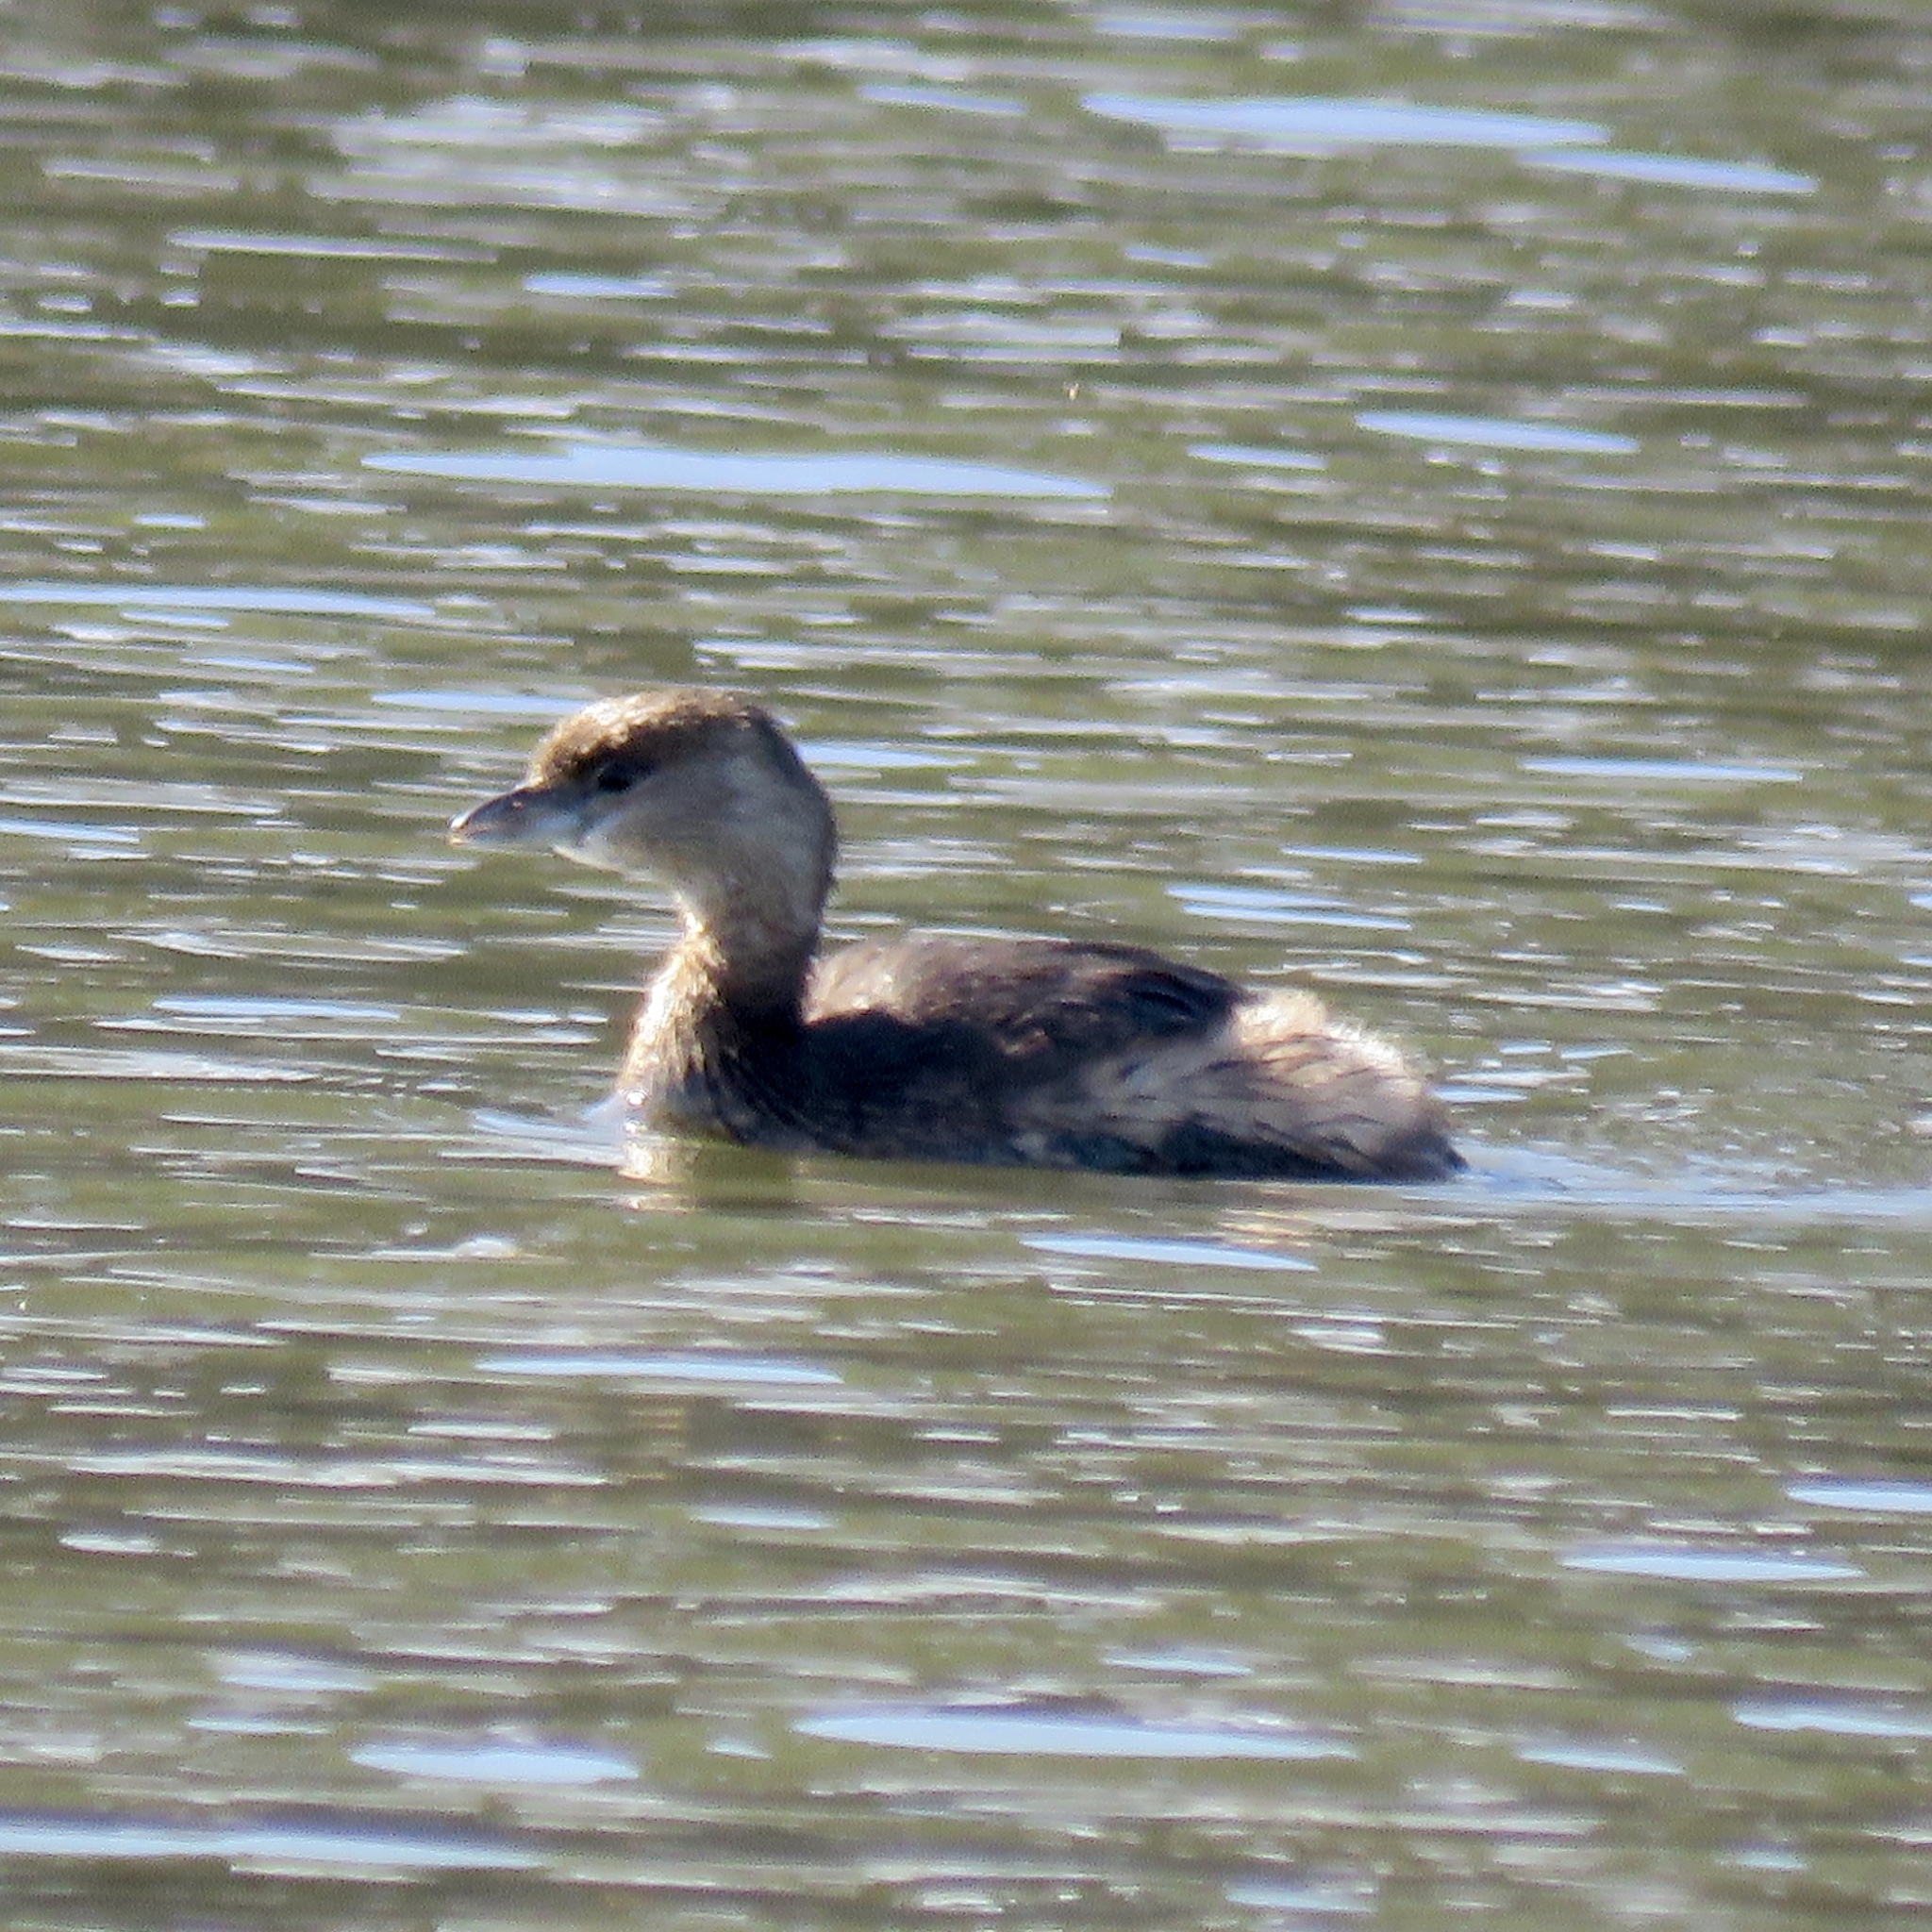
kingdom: Animalia
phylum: Chordata
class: Aves
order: Podicipediformes
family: Podicipedidae
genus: Podilymbus
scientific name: Podilymbus podiceps
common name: Pied-billed grebe
